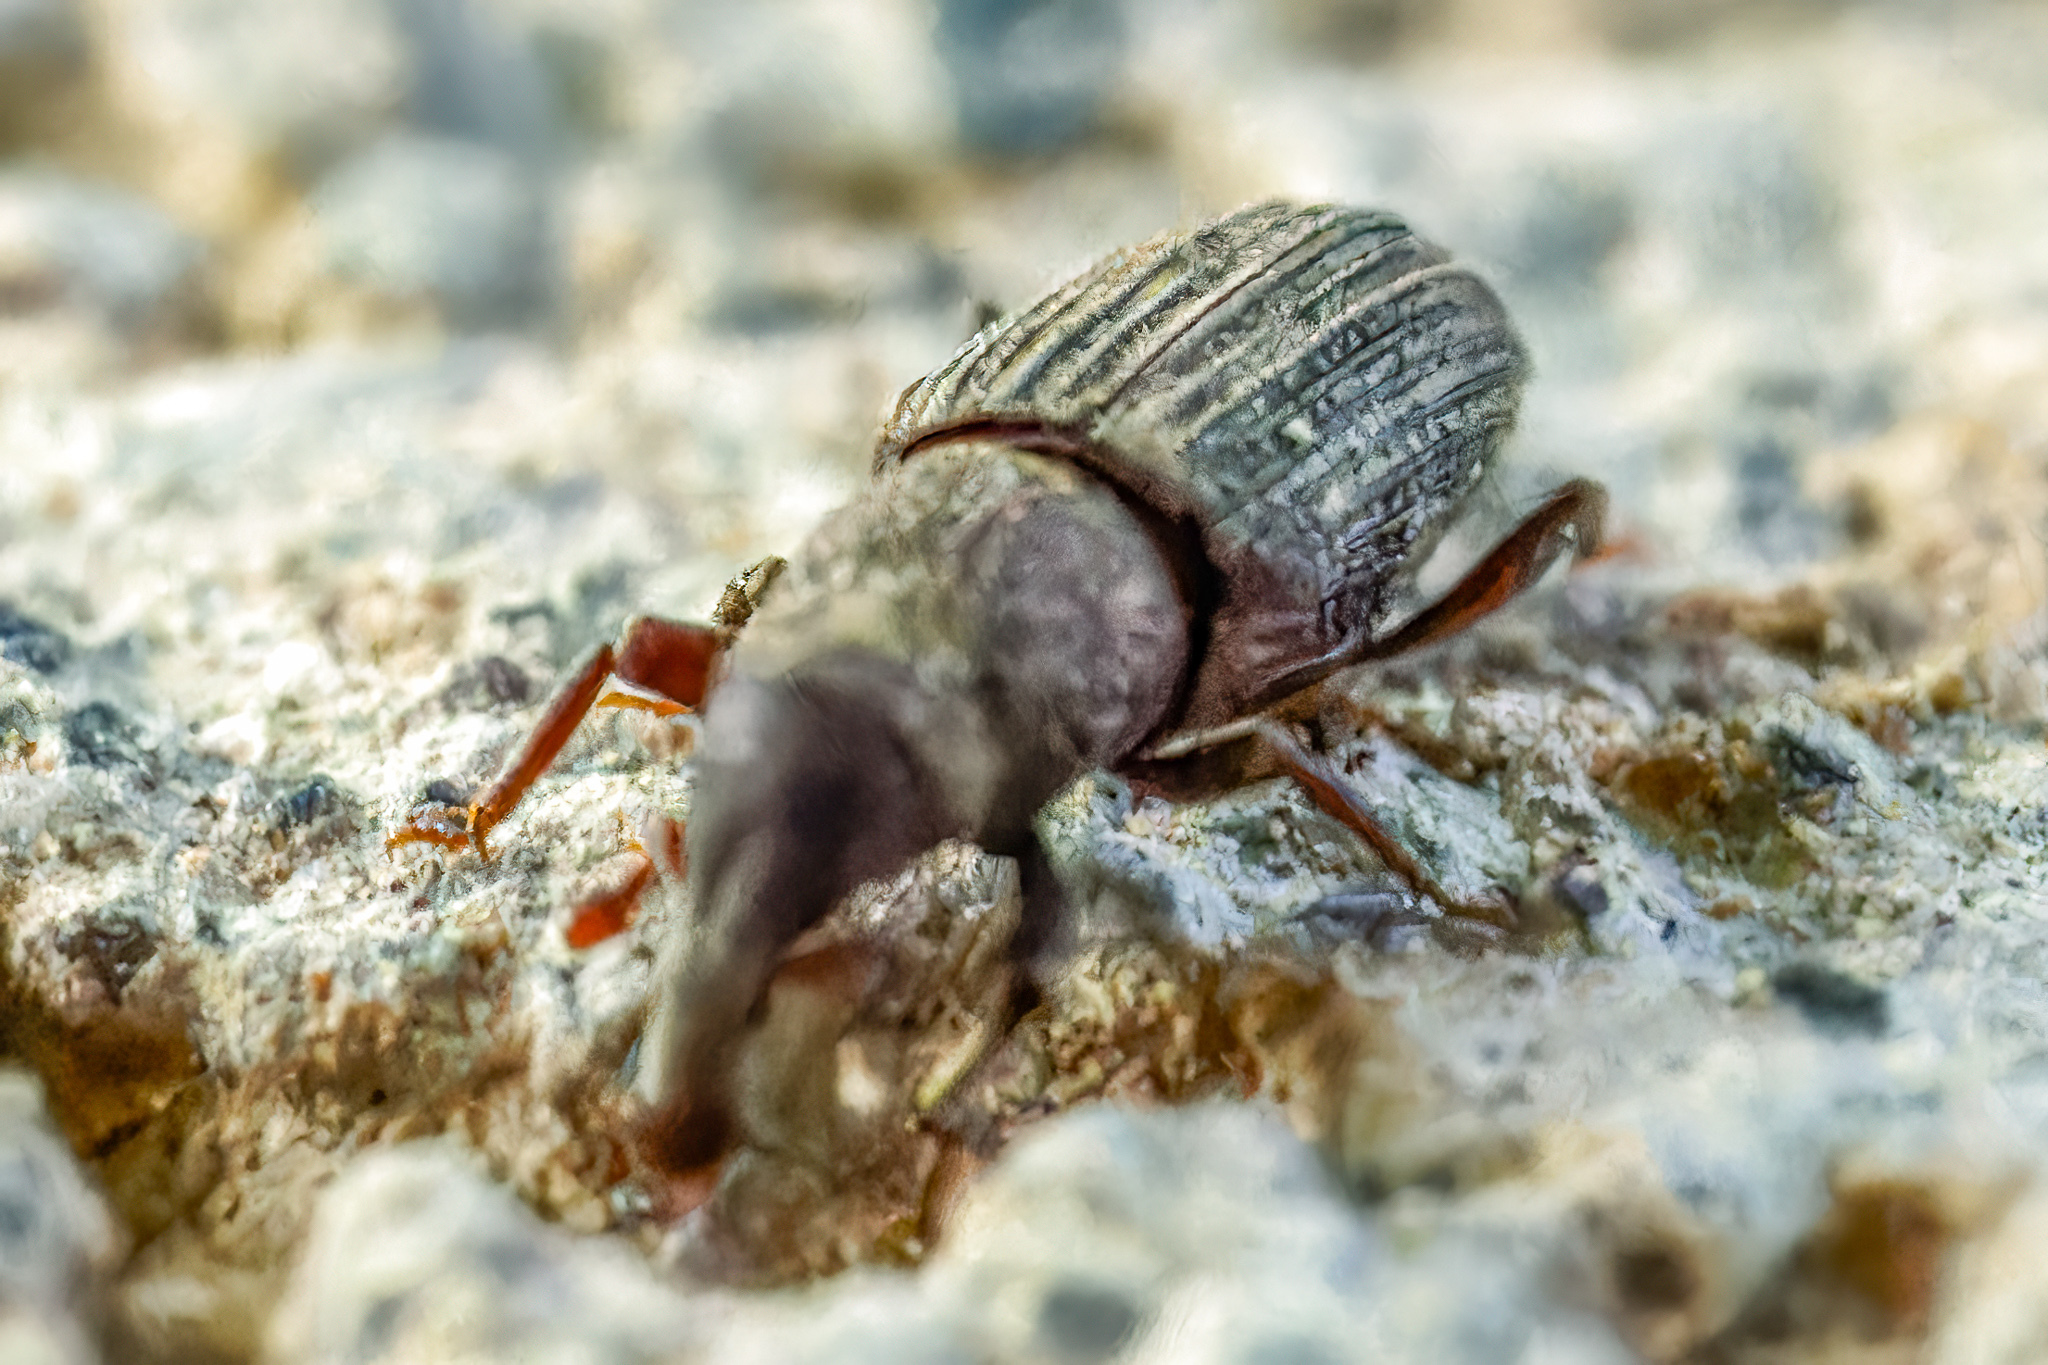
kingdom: Animalia
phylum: Arthropoda
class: Insecta
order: Coleoptera
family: Dryophthoridae
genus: Dryophthorus
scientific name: Dryophthorus americanus
